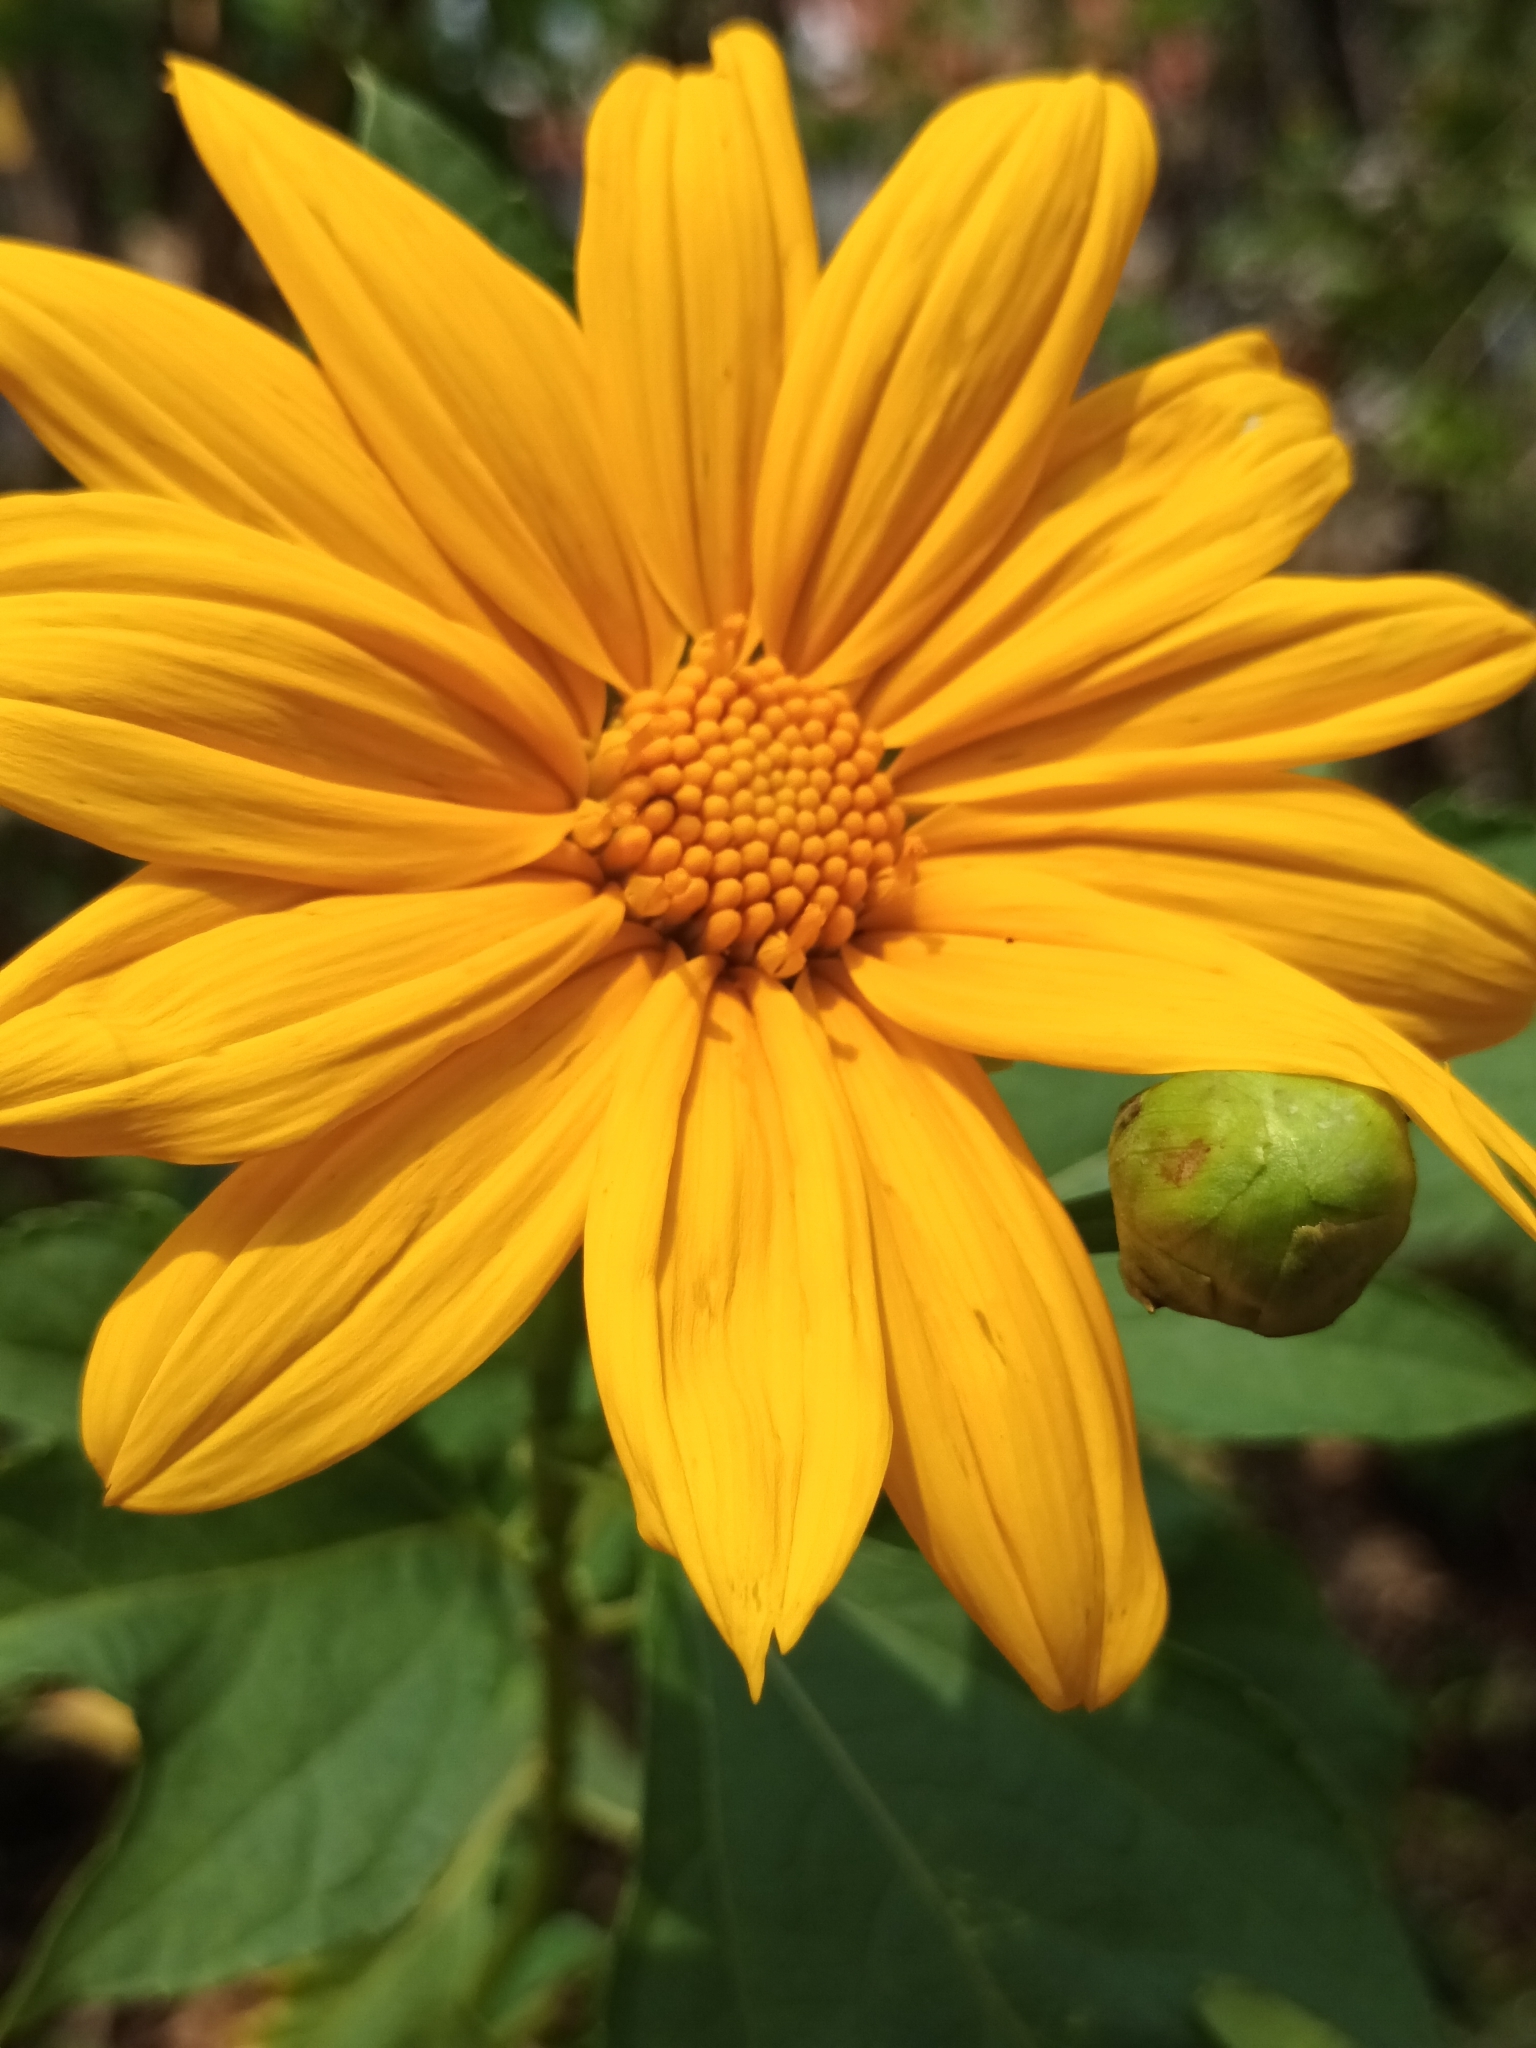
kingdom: Plantae
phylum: Tracheophyta
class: Magnoliopsida
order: Asterales
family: Asteraceae
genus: Tithonia
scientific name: Tithonia diversifolia
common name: Tree marigold
